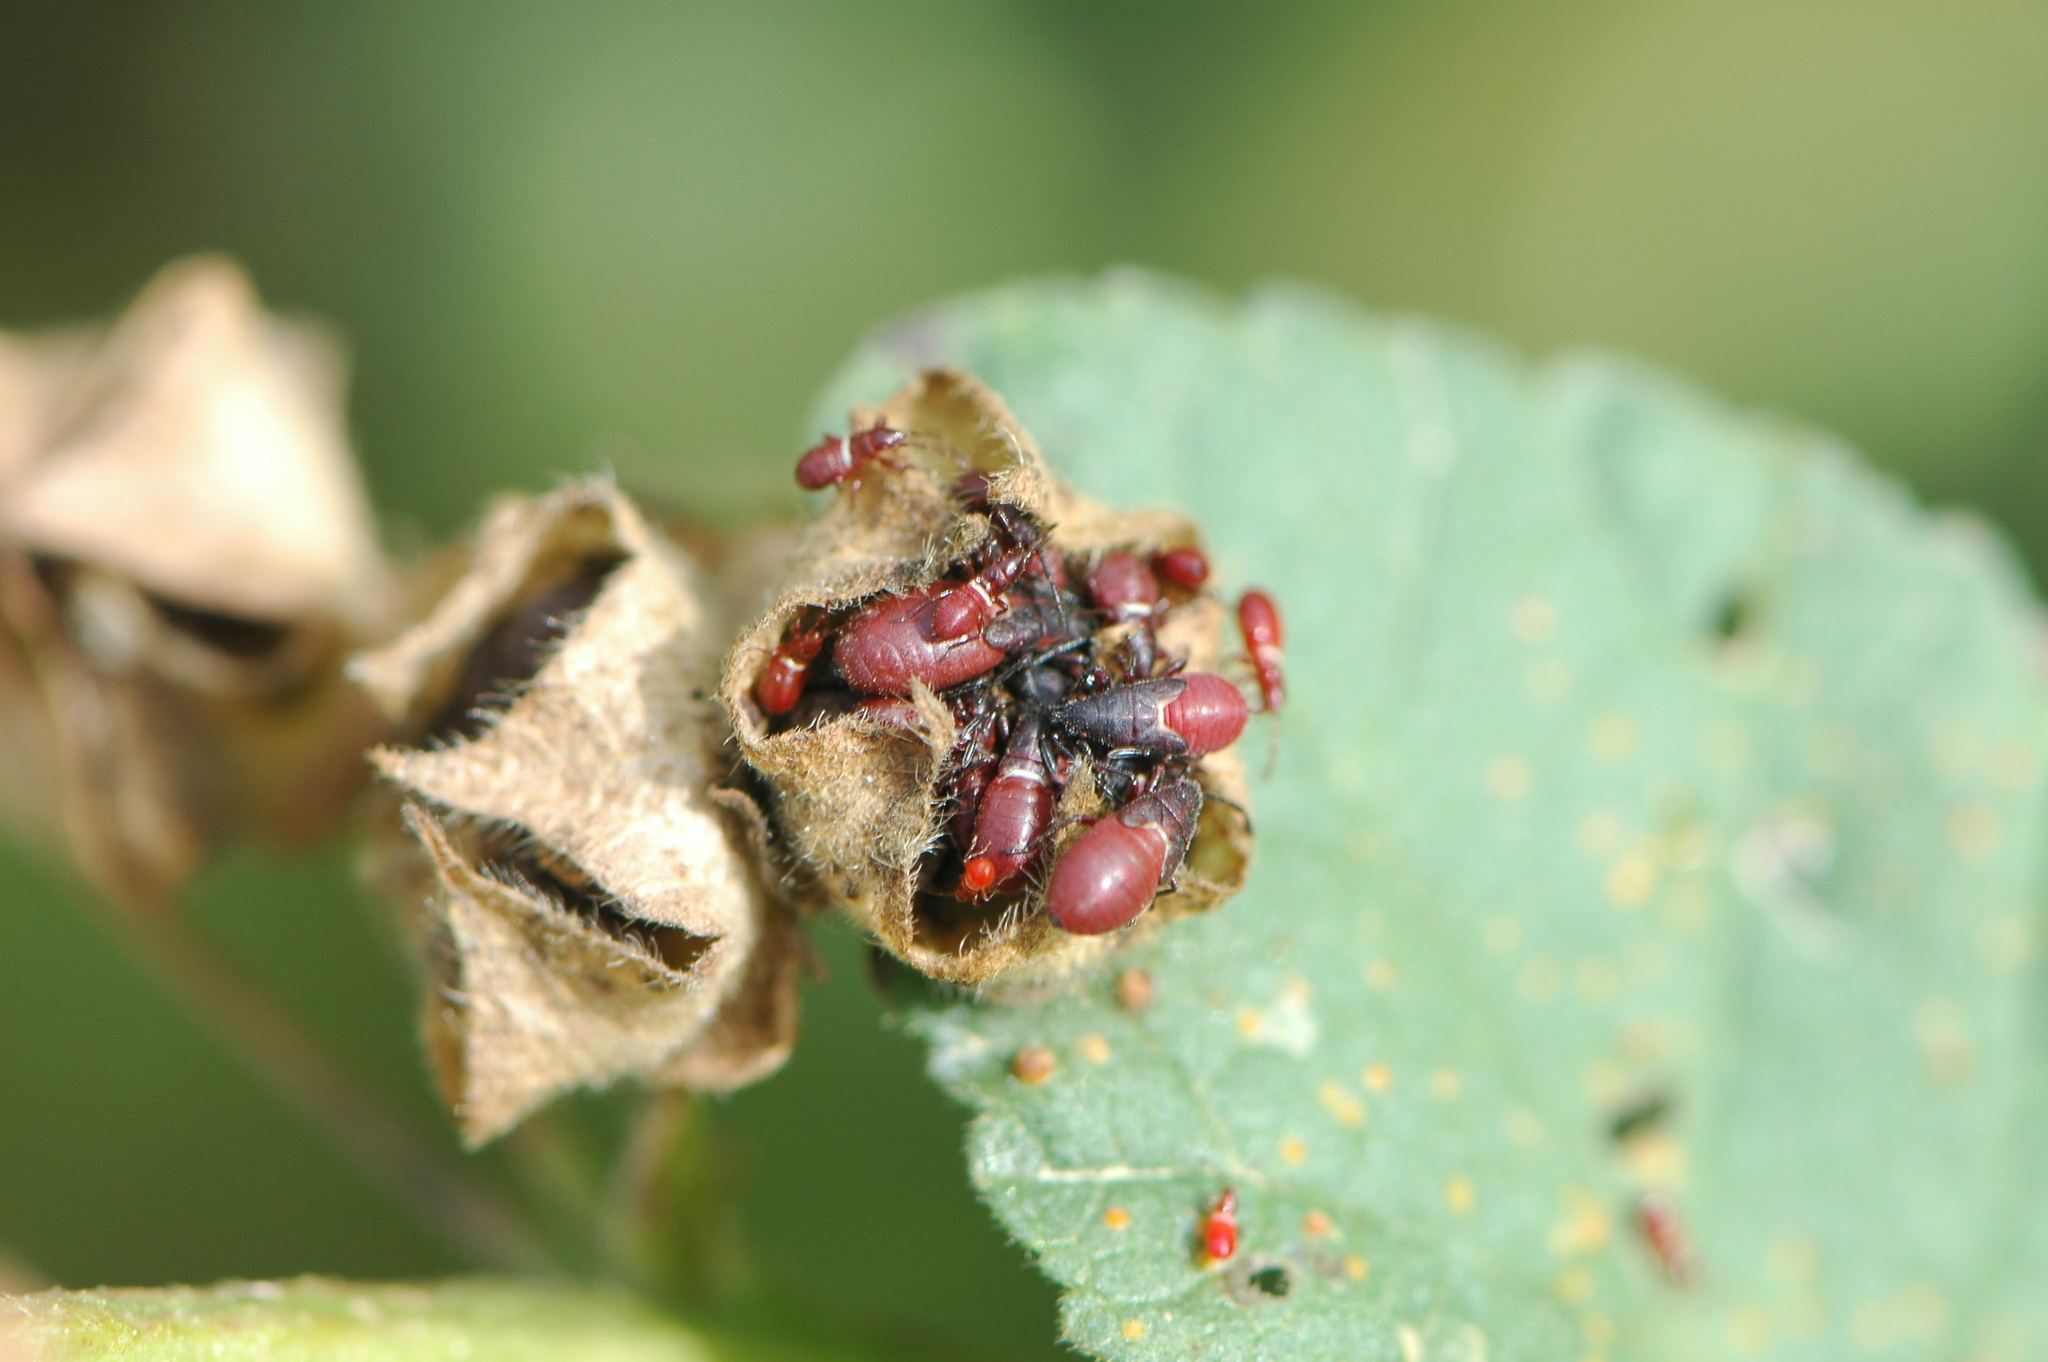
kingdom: Animalia
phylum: Arthropoda
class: Insecta
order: Hemiptera
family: Oxycarenidae
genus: Oxycarenus
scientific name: Oxycarenus lavaterae
